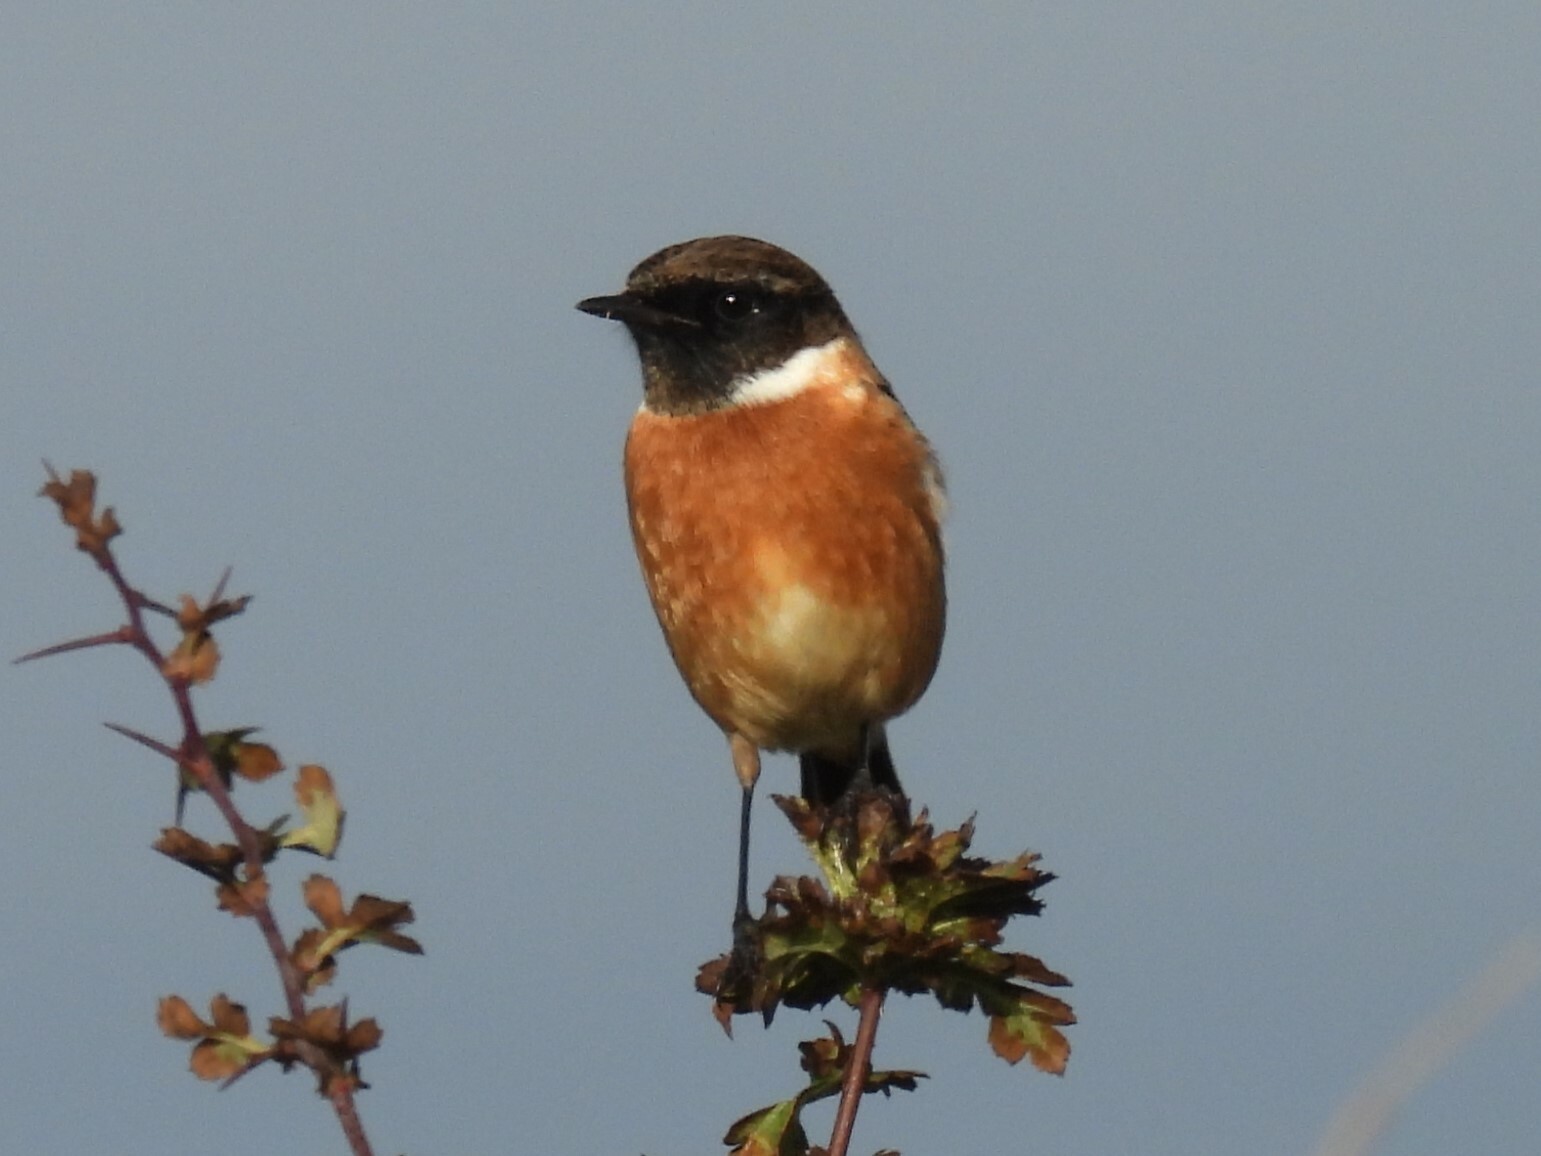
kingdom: Animalia
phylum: Chordata
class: Aves
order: Passeriformes
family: Muscicapidae
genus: Saxicola
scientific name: Saxicola rubicola
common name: European stonechat
